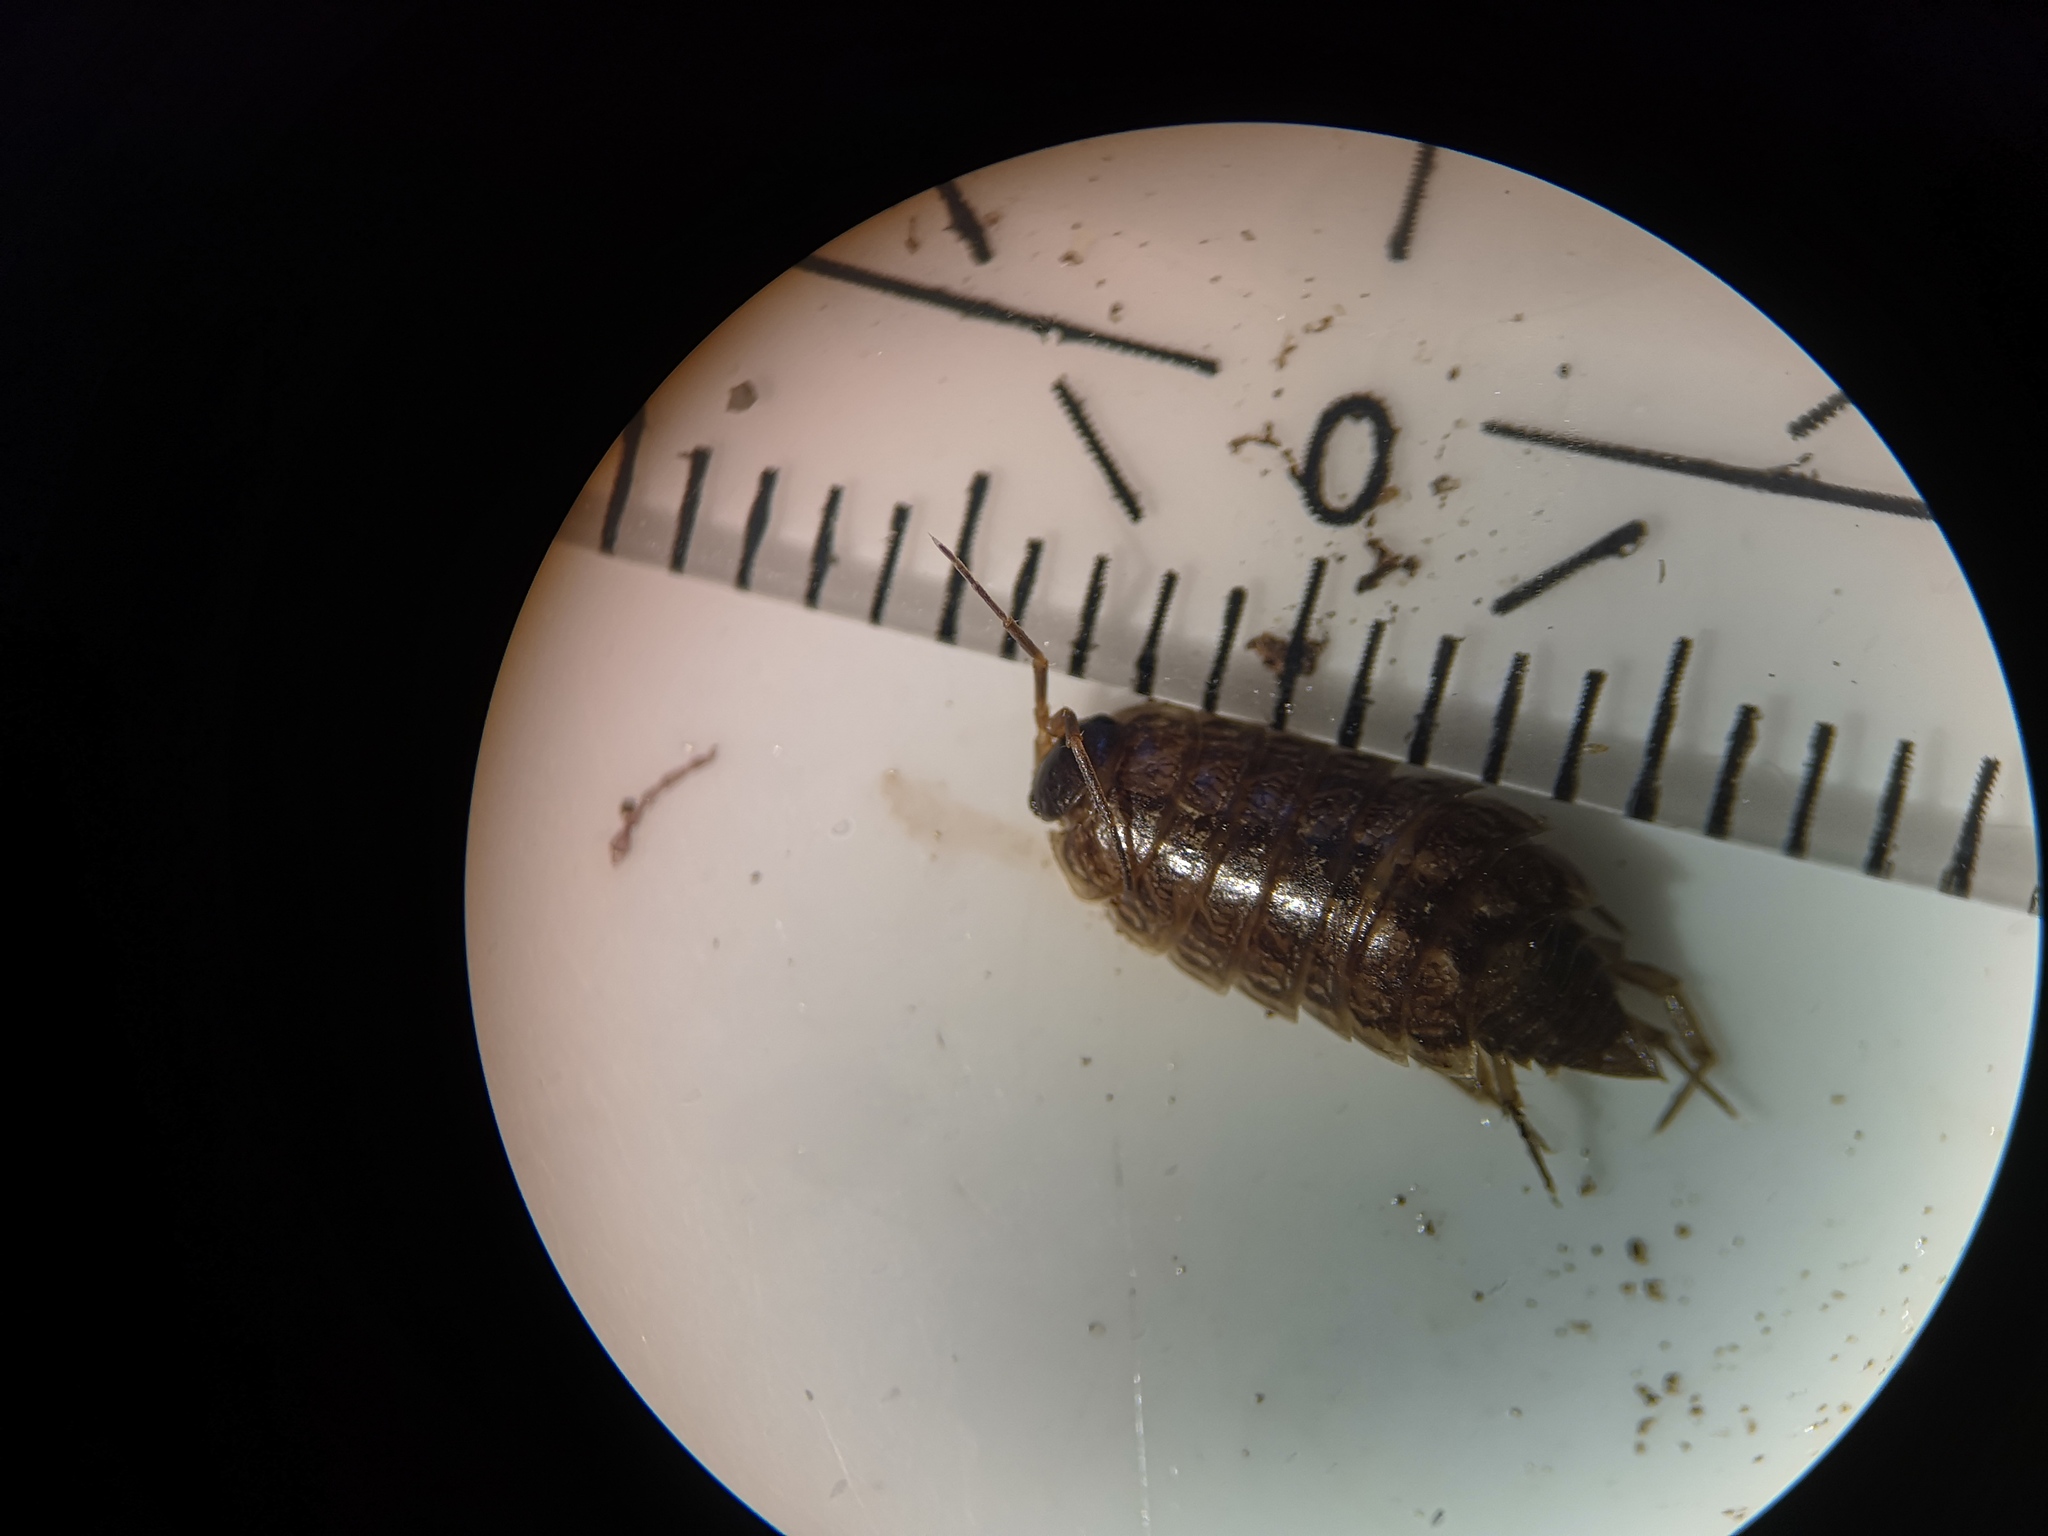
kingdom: Animalia
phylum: Arthropoda
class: Malacostraca
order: Isopoda
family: Philosciidae
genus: Philoscia
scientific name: Philoscia muscorum
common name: Common striped woodlouse
